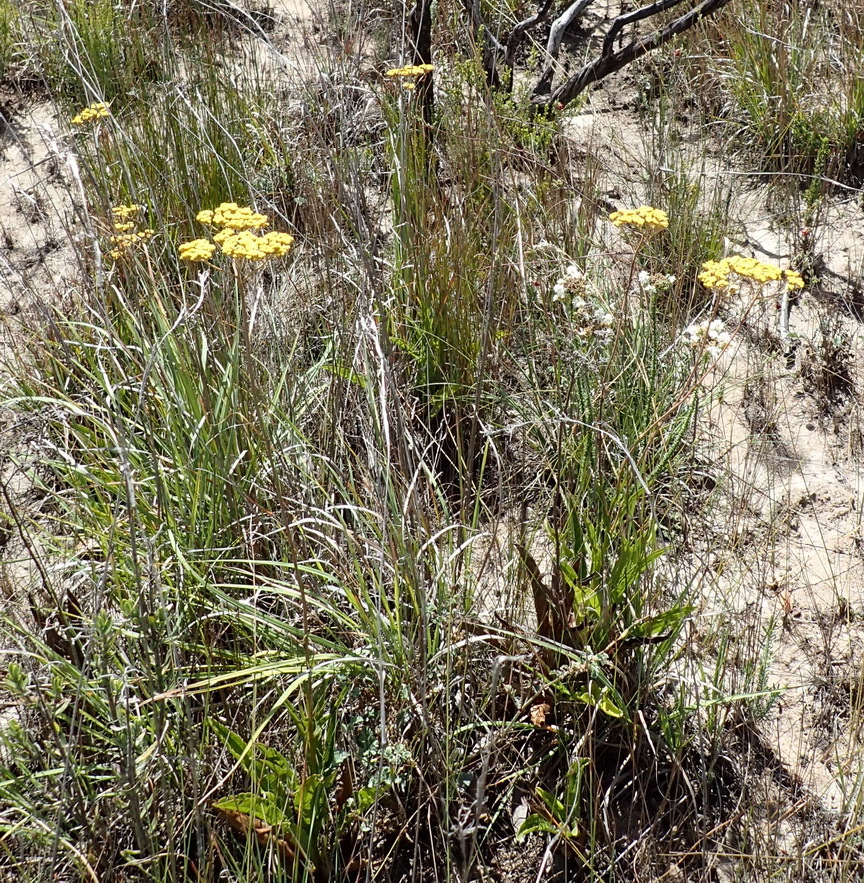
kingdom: Plantae
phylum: Tracheophyta
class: Magnoliopsida
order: Asterales
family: Asteraceae
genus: Helichrysum
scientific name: Helichrysum nudifolium
